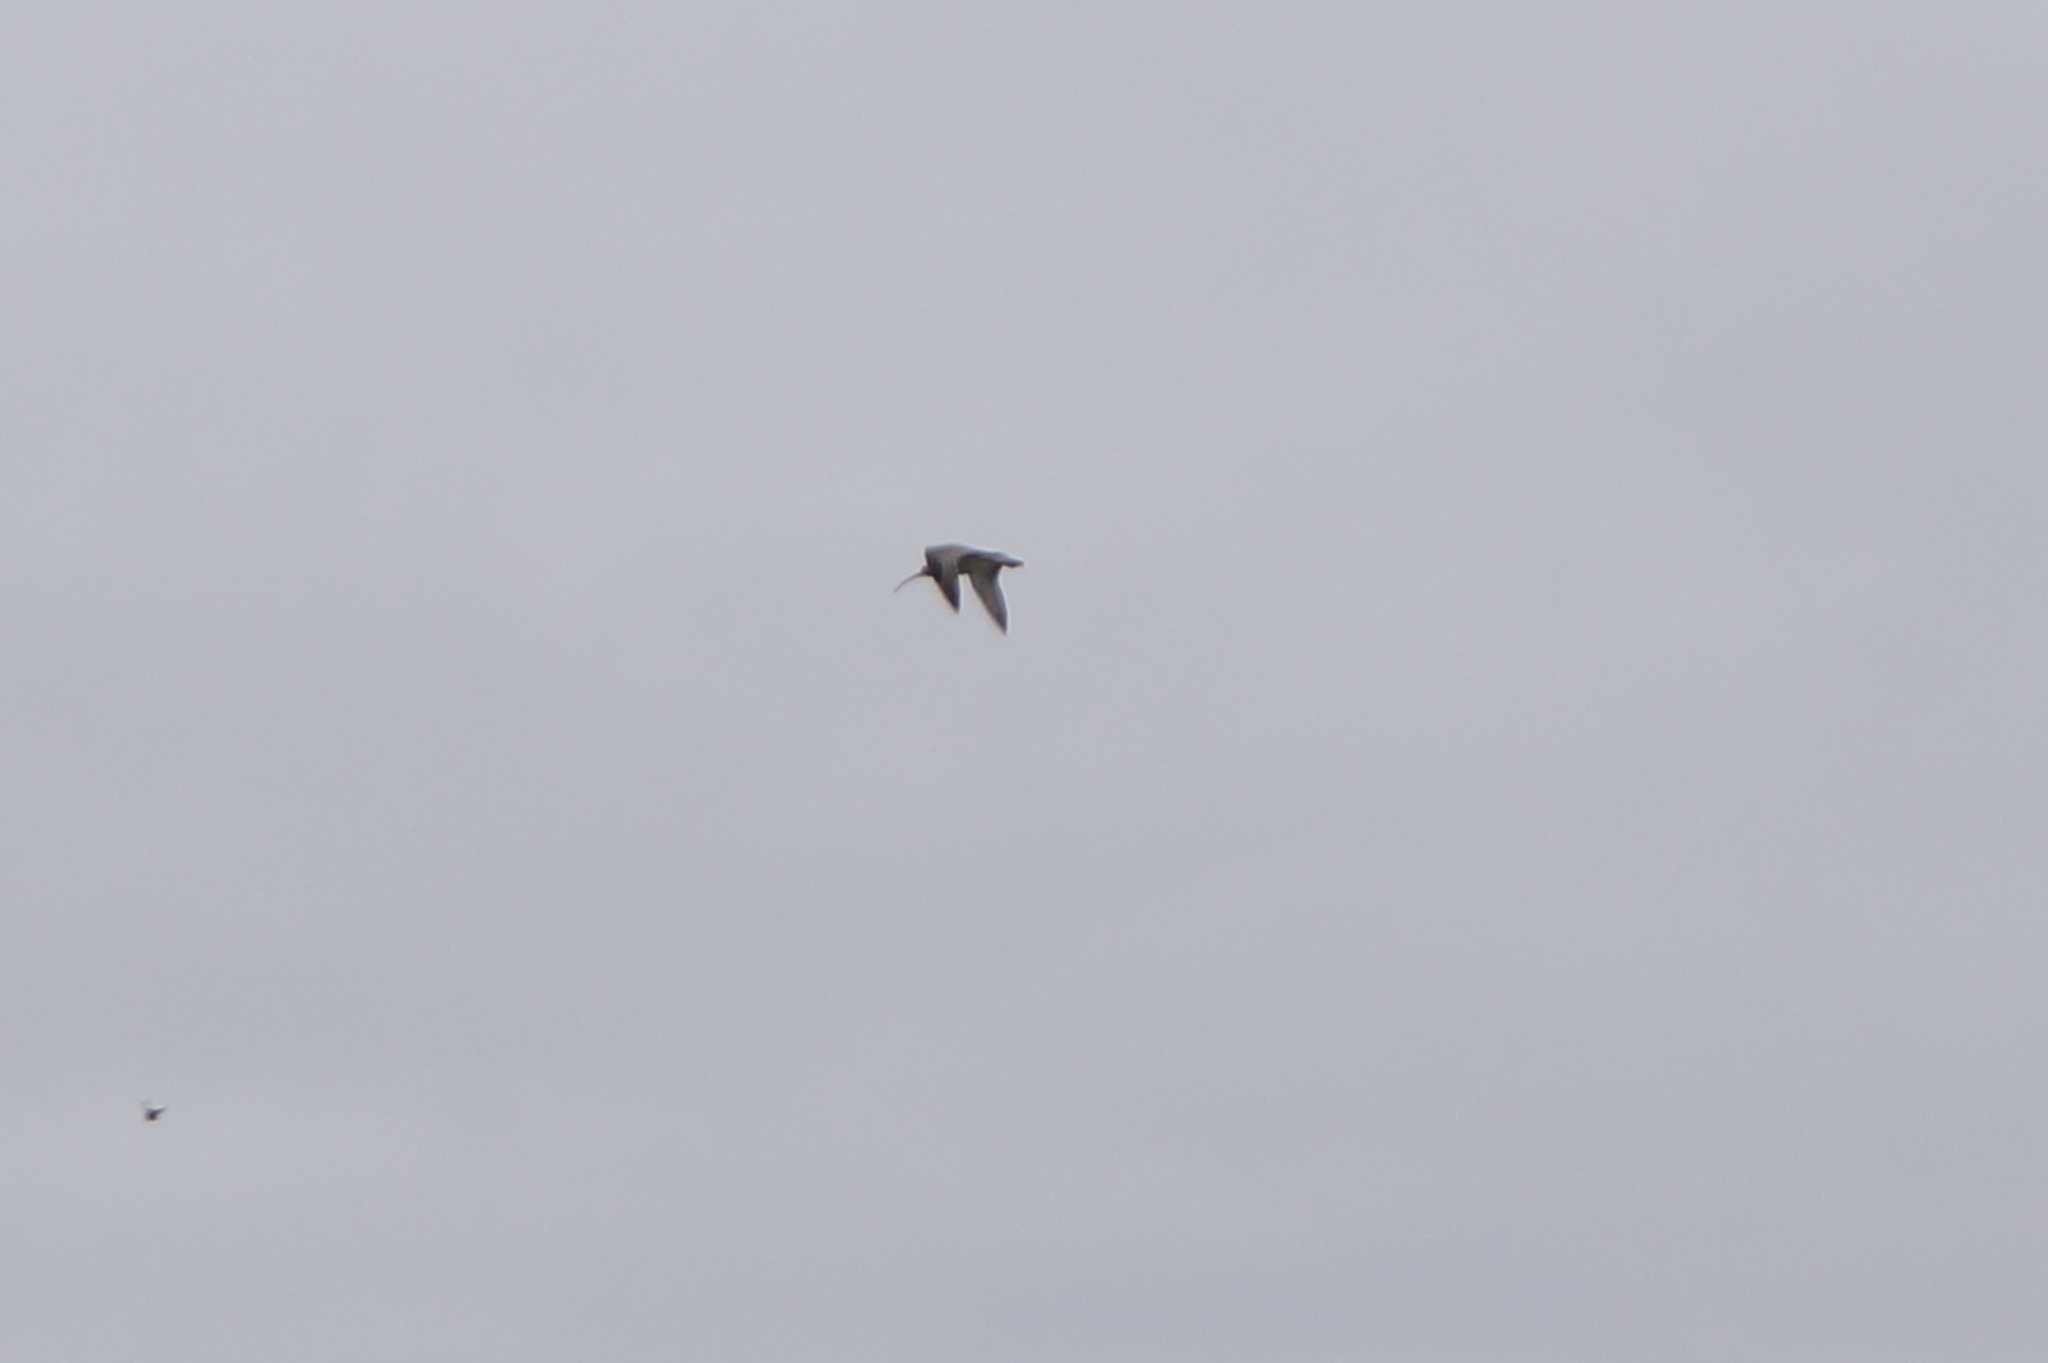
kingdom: Animalia
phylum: Chordata
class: Aves
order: Charadriiformes
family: Scolopacidae
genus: Numenius
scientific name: Numenius arquata
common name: Eurasian curlew
